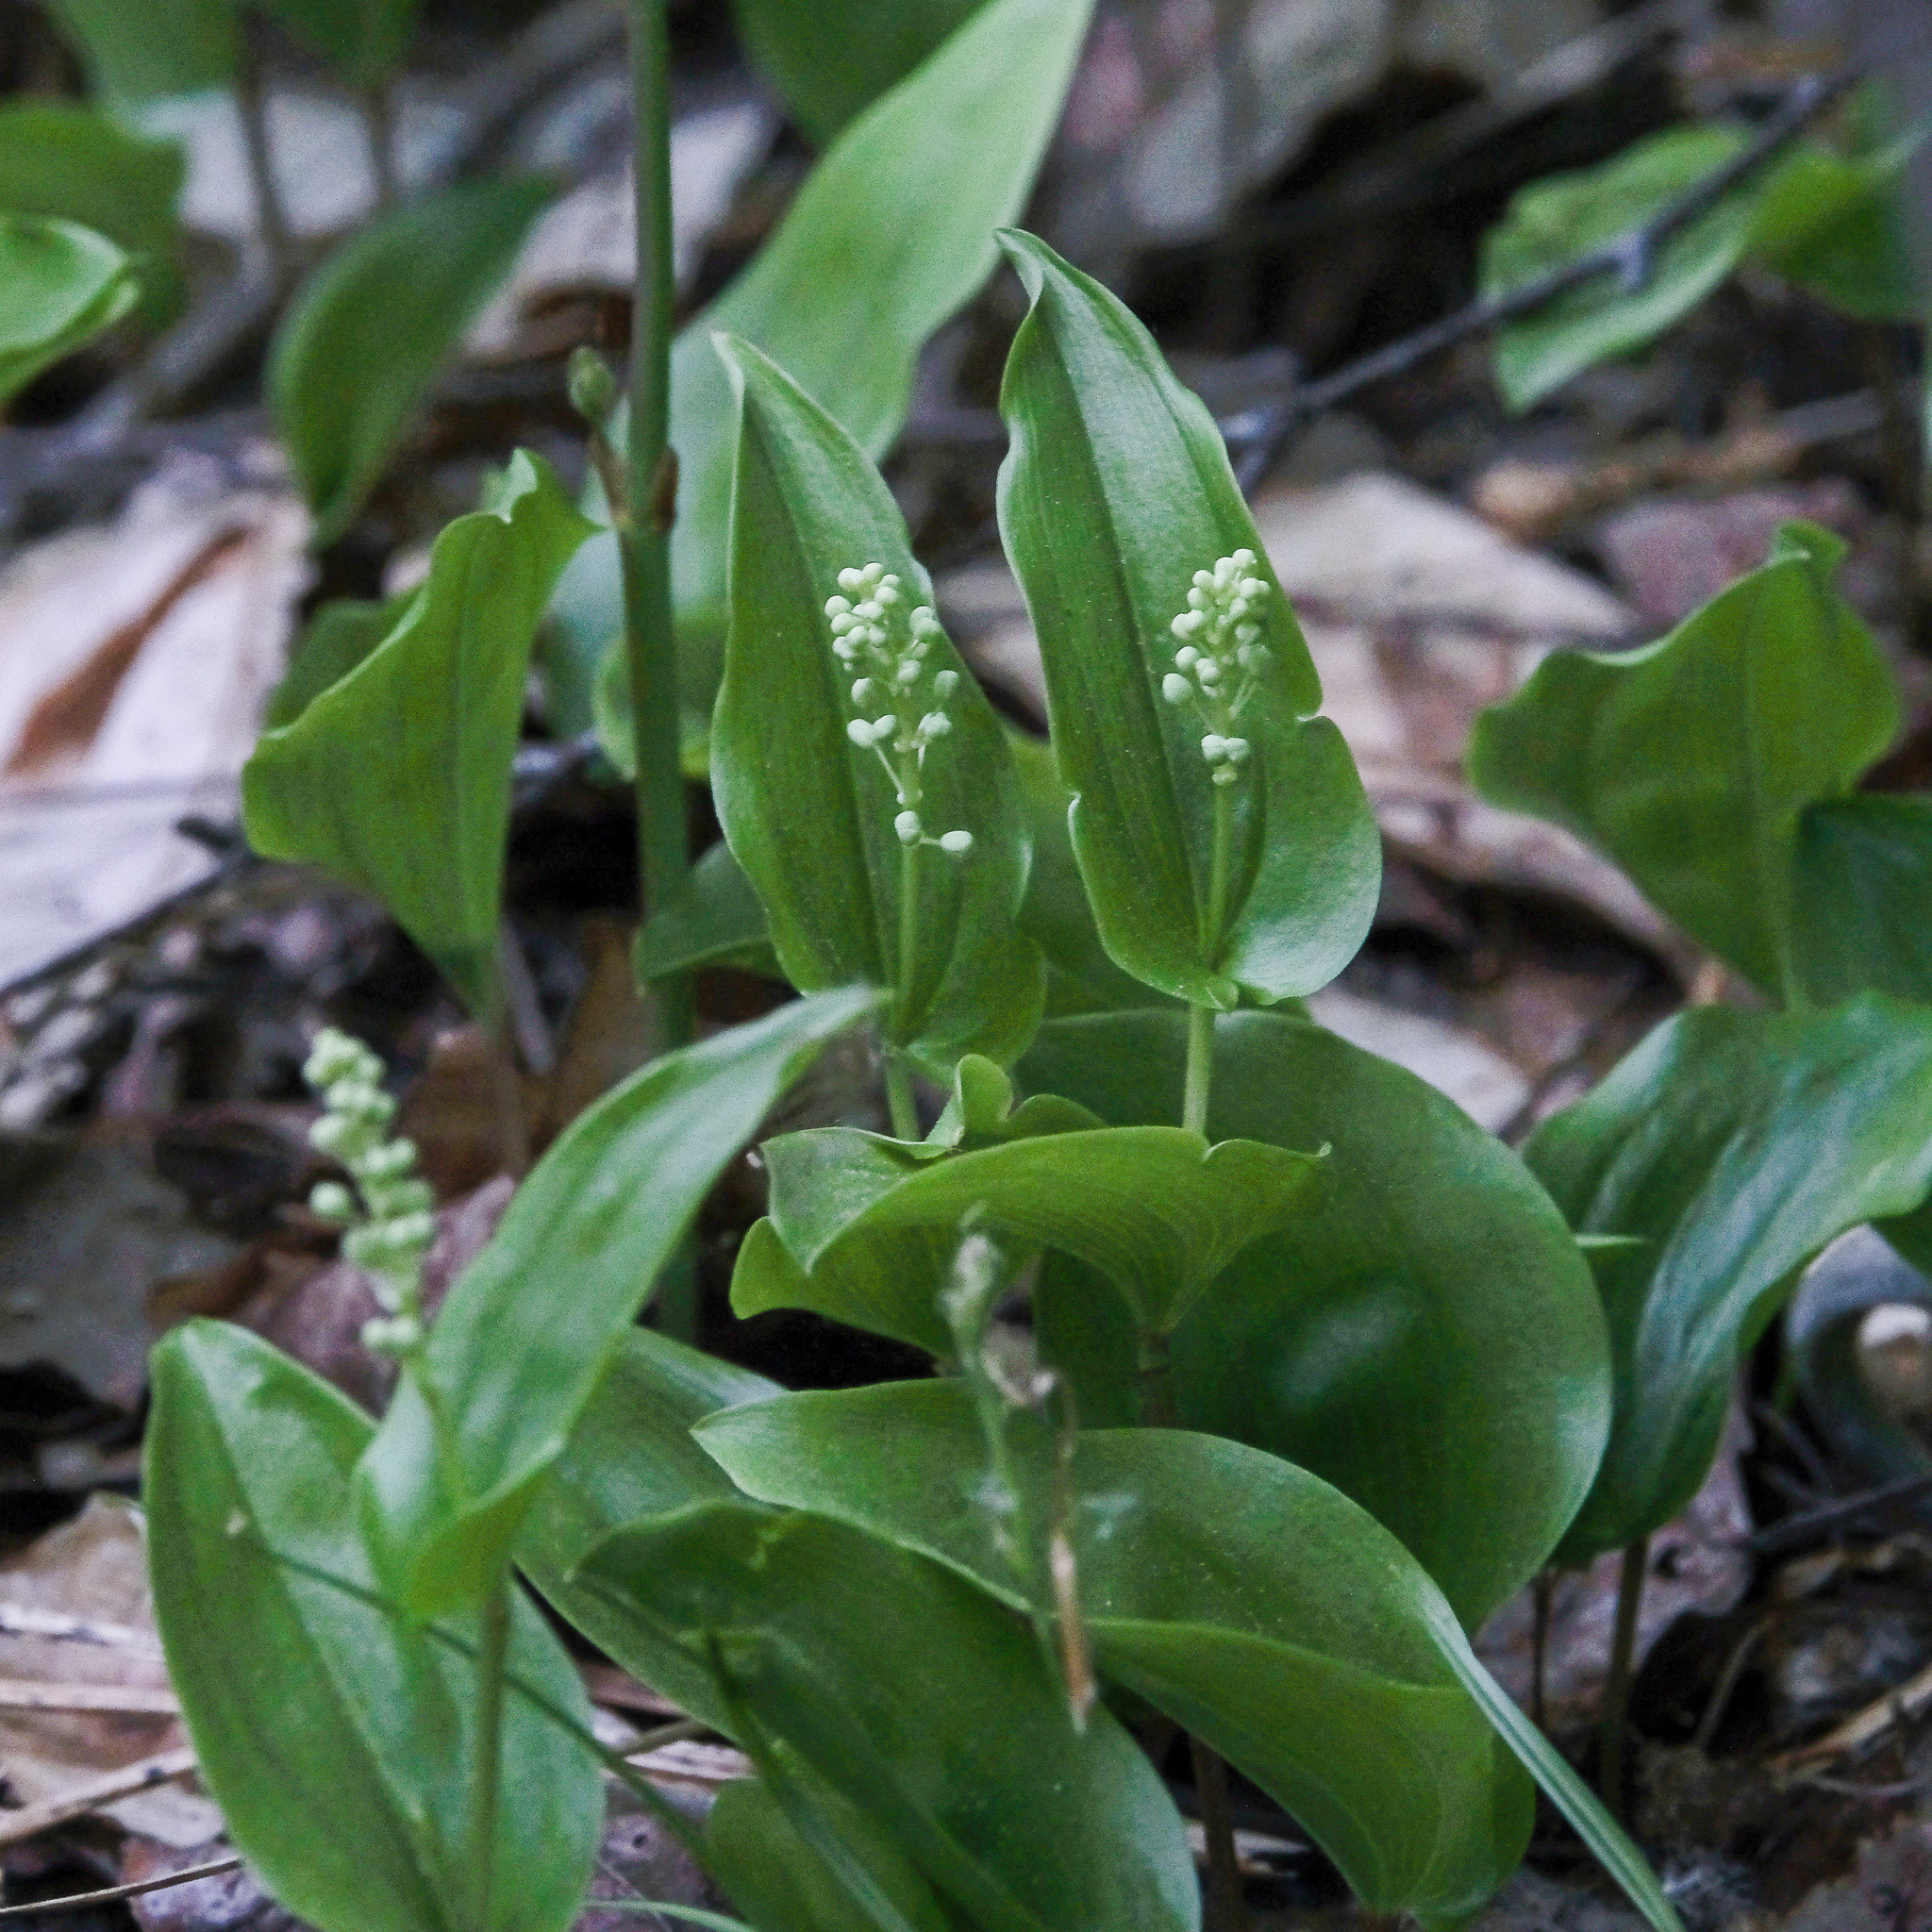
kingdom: Plantae
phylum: Tracheophyta
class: Liliopsida
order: Asparagales
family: Asparagaceae
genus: Maianthemum
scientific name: Maianthemum canadense
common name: False lily-of-the-valley
